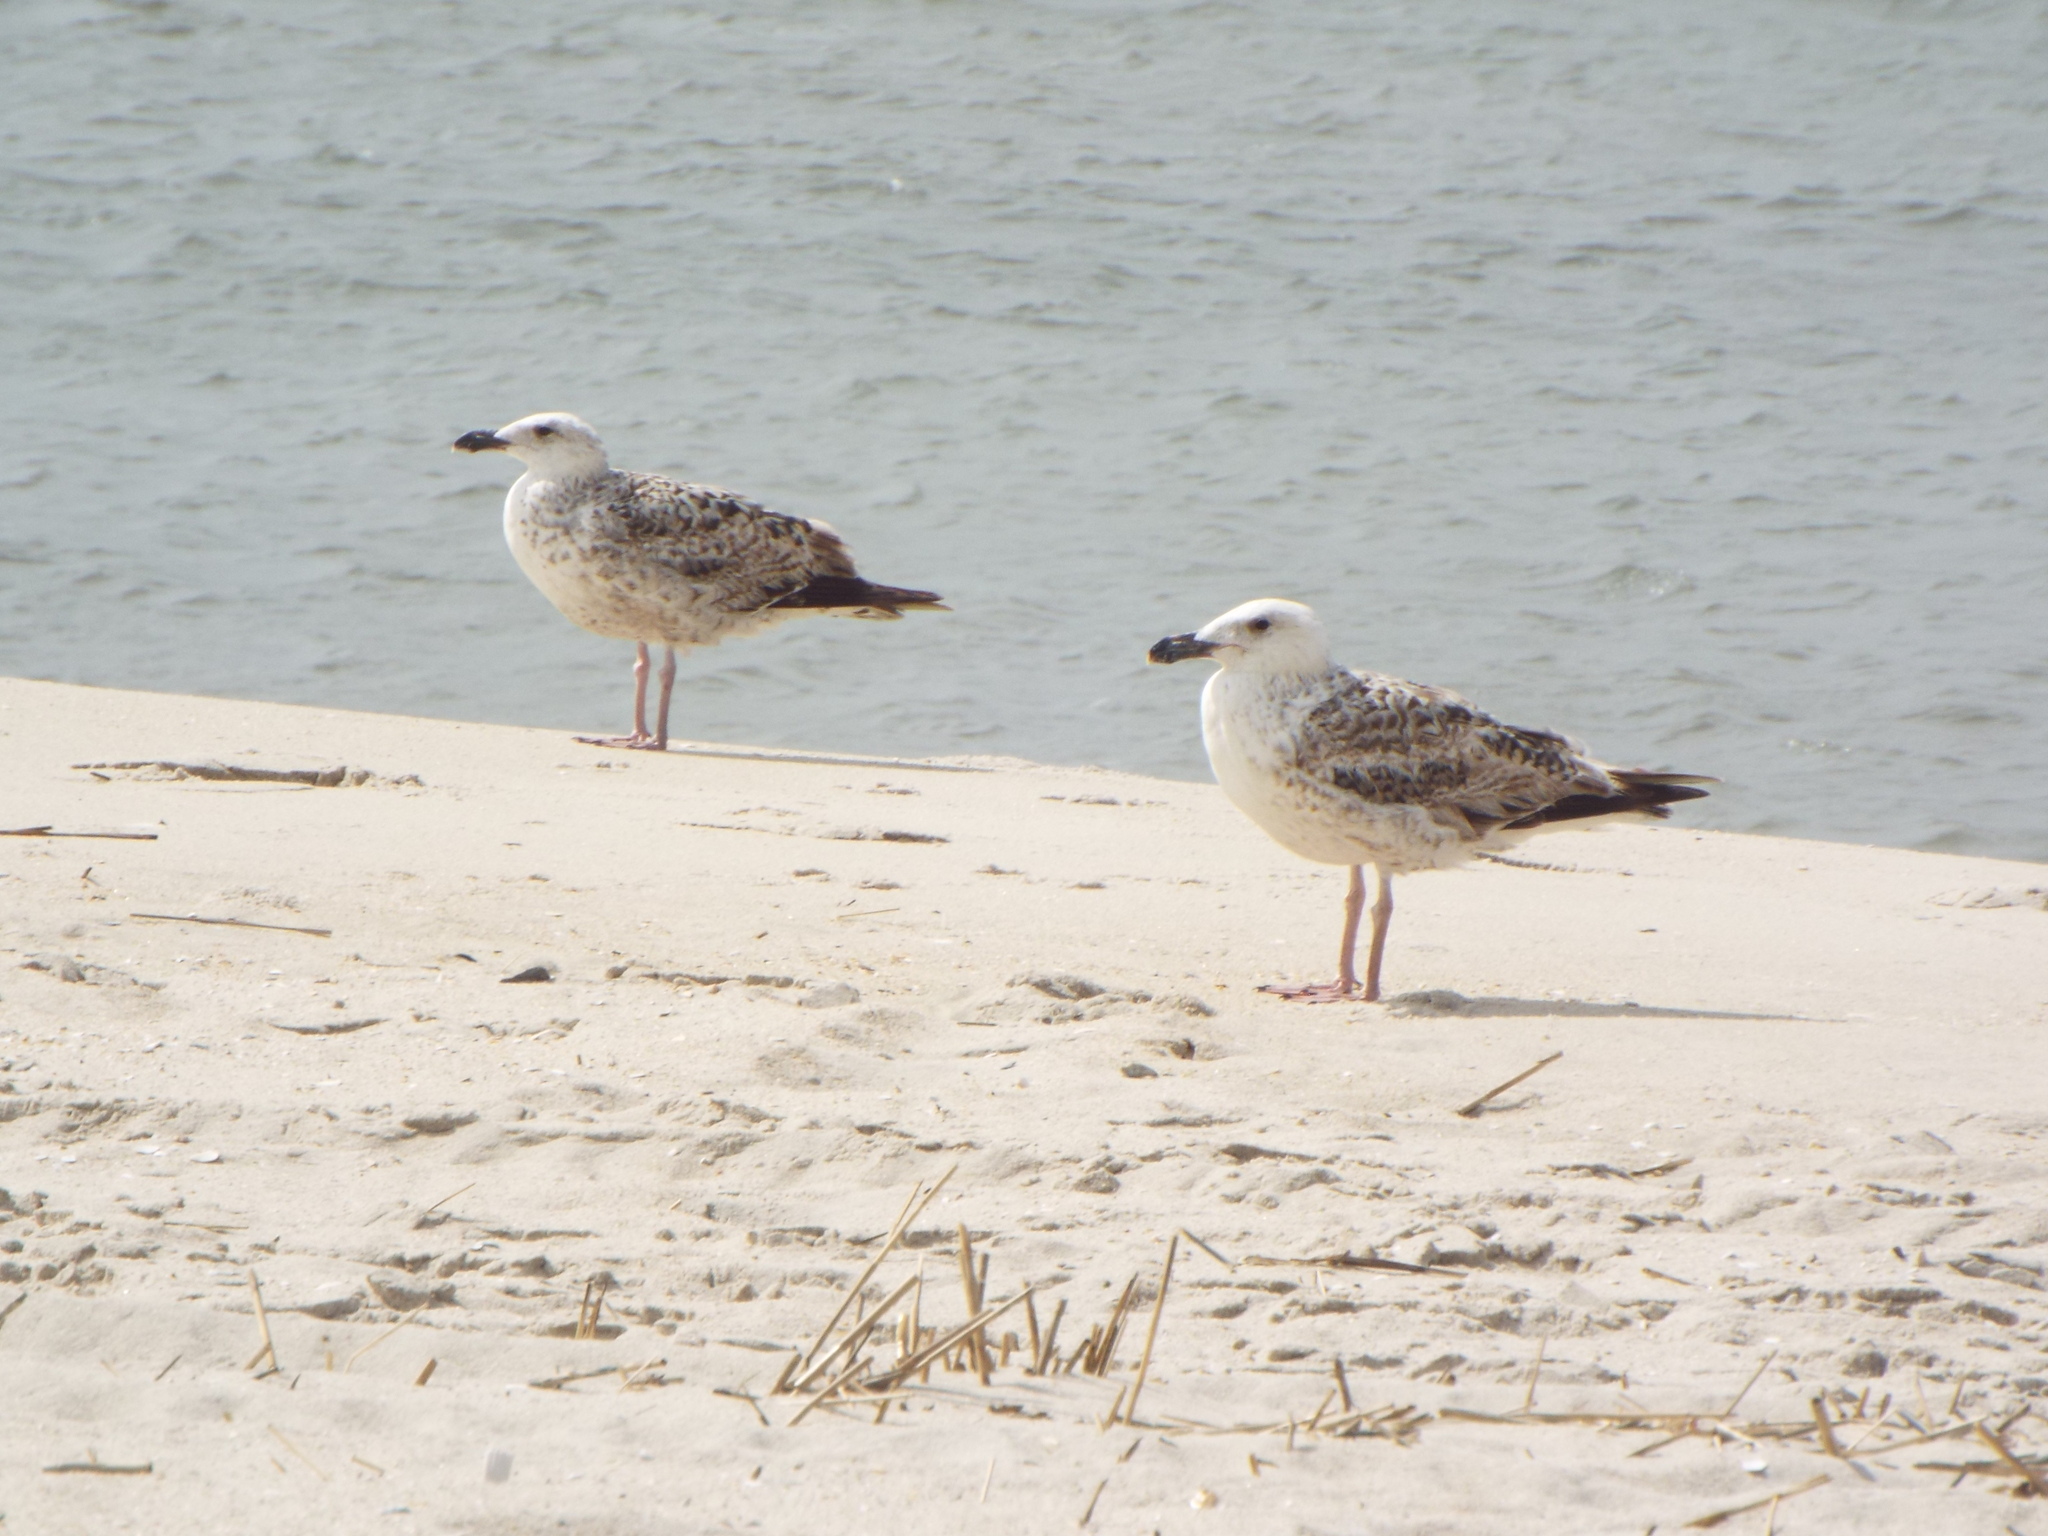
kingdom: Animalia
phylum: Chordata
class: Aves
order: Charadriiformes
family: Laridae
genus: Larus
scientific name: Larus marinus
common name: Great black-backed gull
